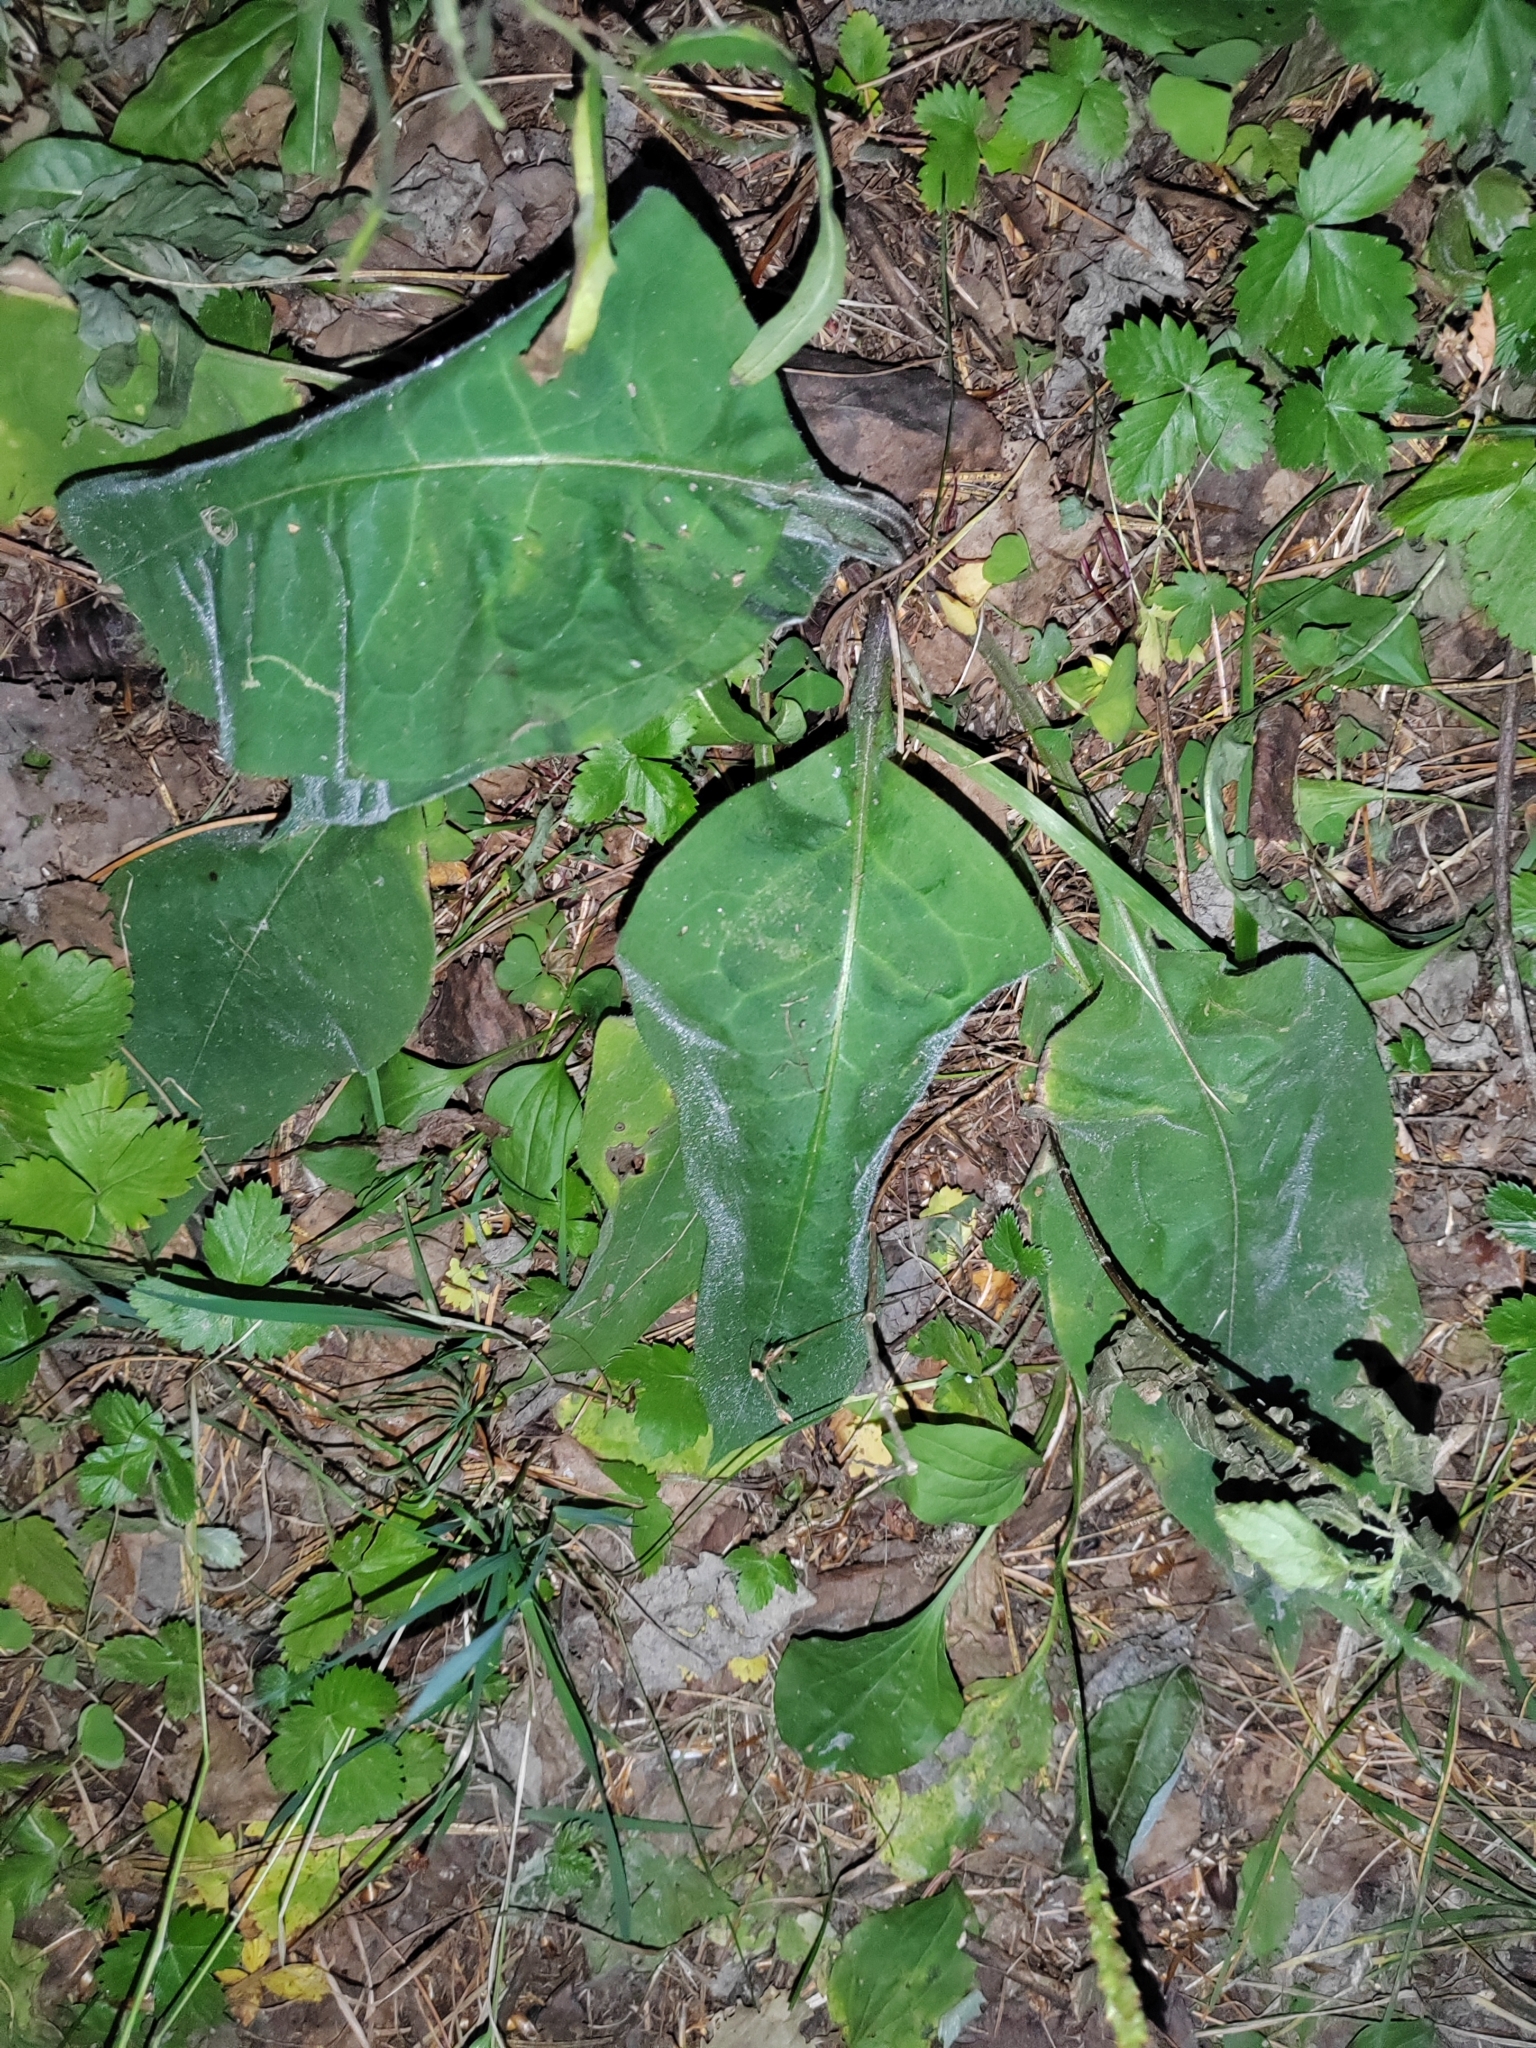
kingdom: Plantae
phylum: Tracheophyta
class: Magnoliopsida
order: Boraginales
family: Boraginaceae
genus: Pulmonaria
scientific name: Pulmonaria mollis
